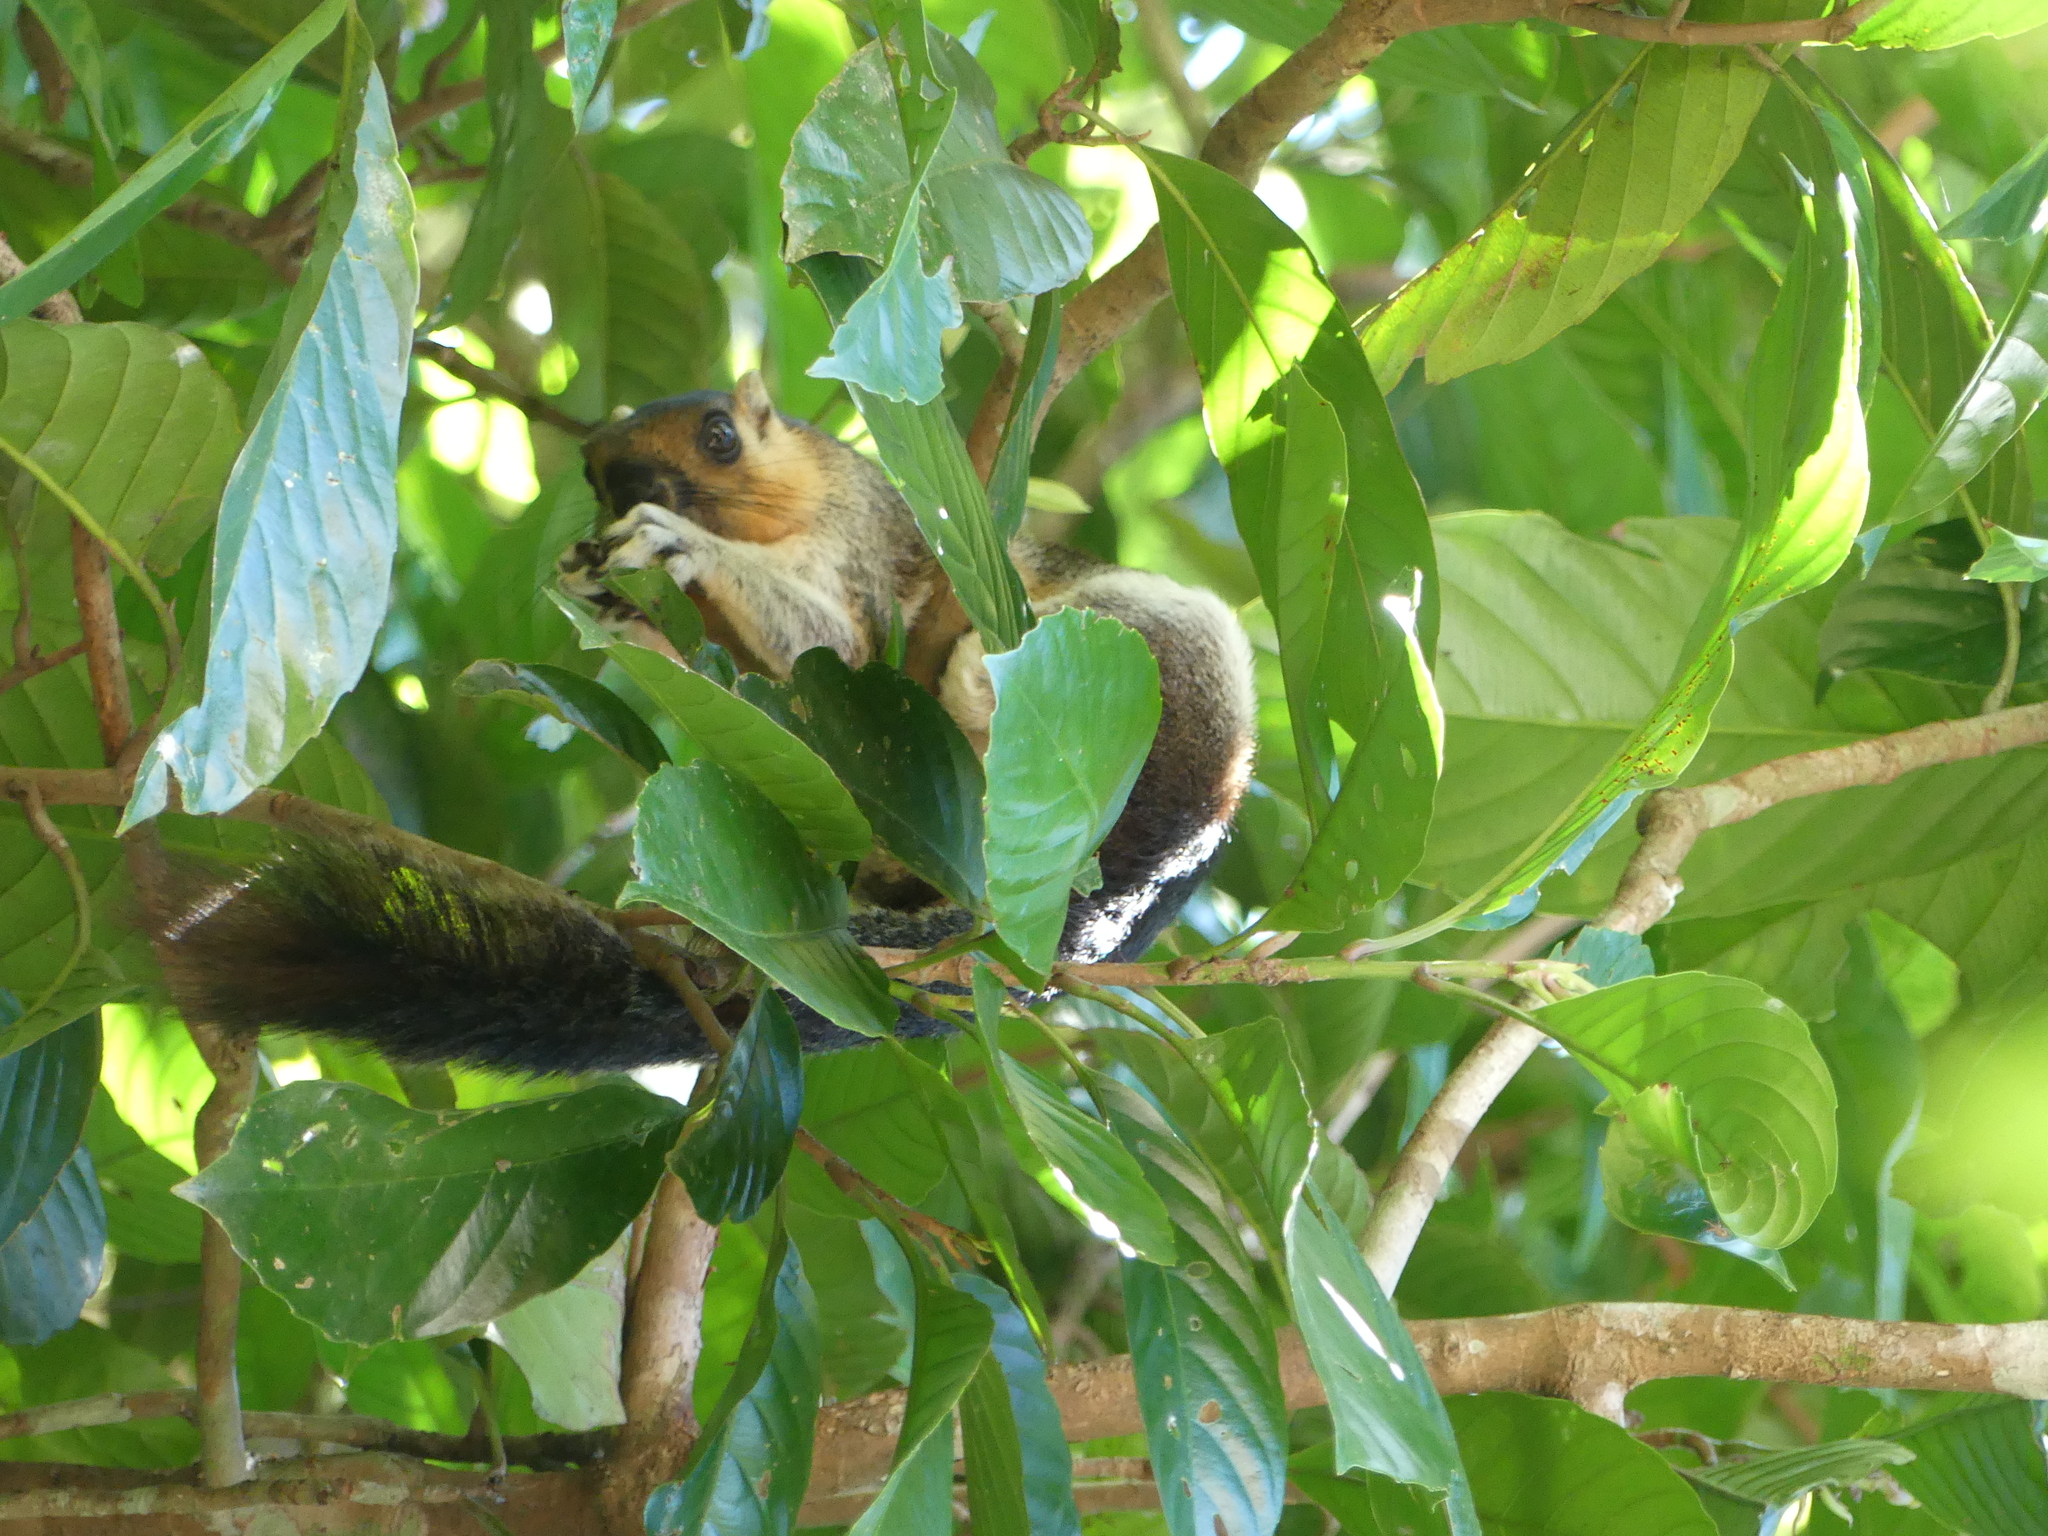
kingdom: Animalia
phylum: Chordata
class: Mammalia
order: Rodentia
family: Sciuridae
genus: Ratufa
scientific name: Ratufa affinis
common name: Pale giant squirrel
